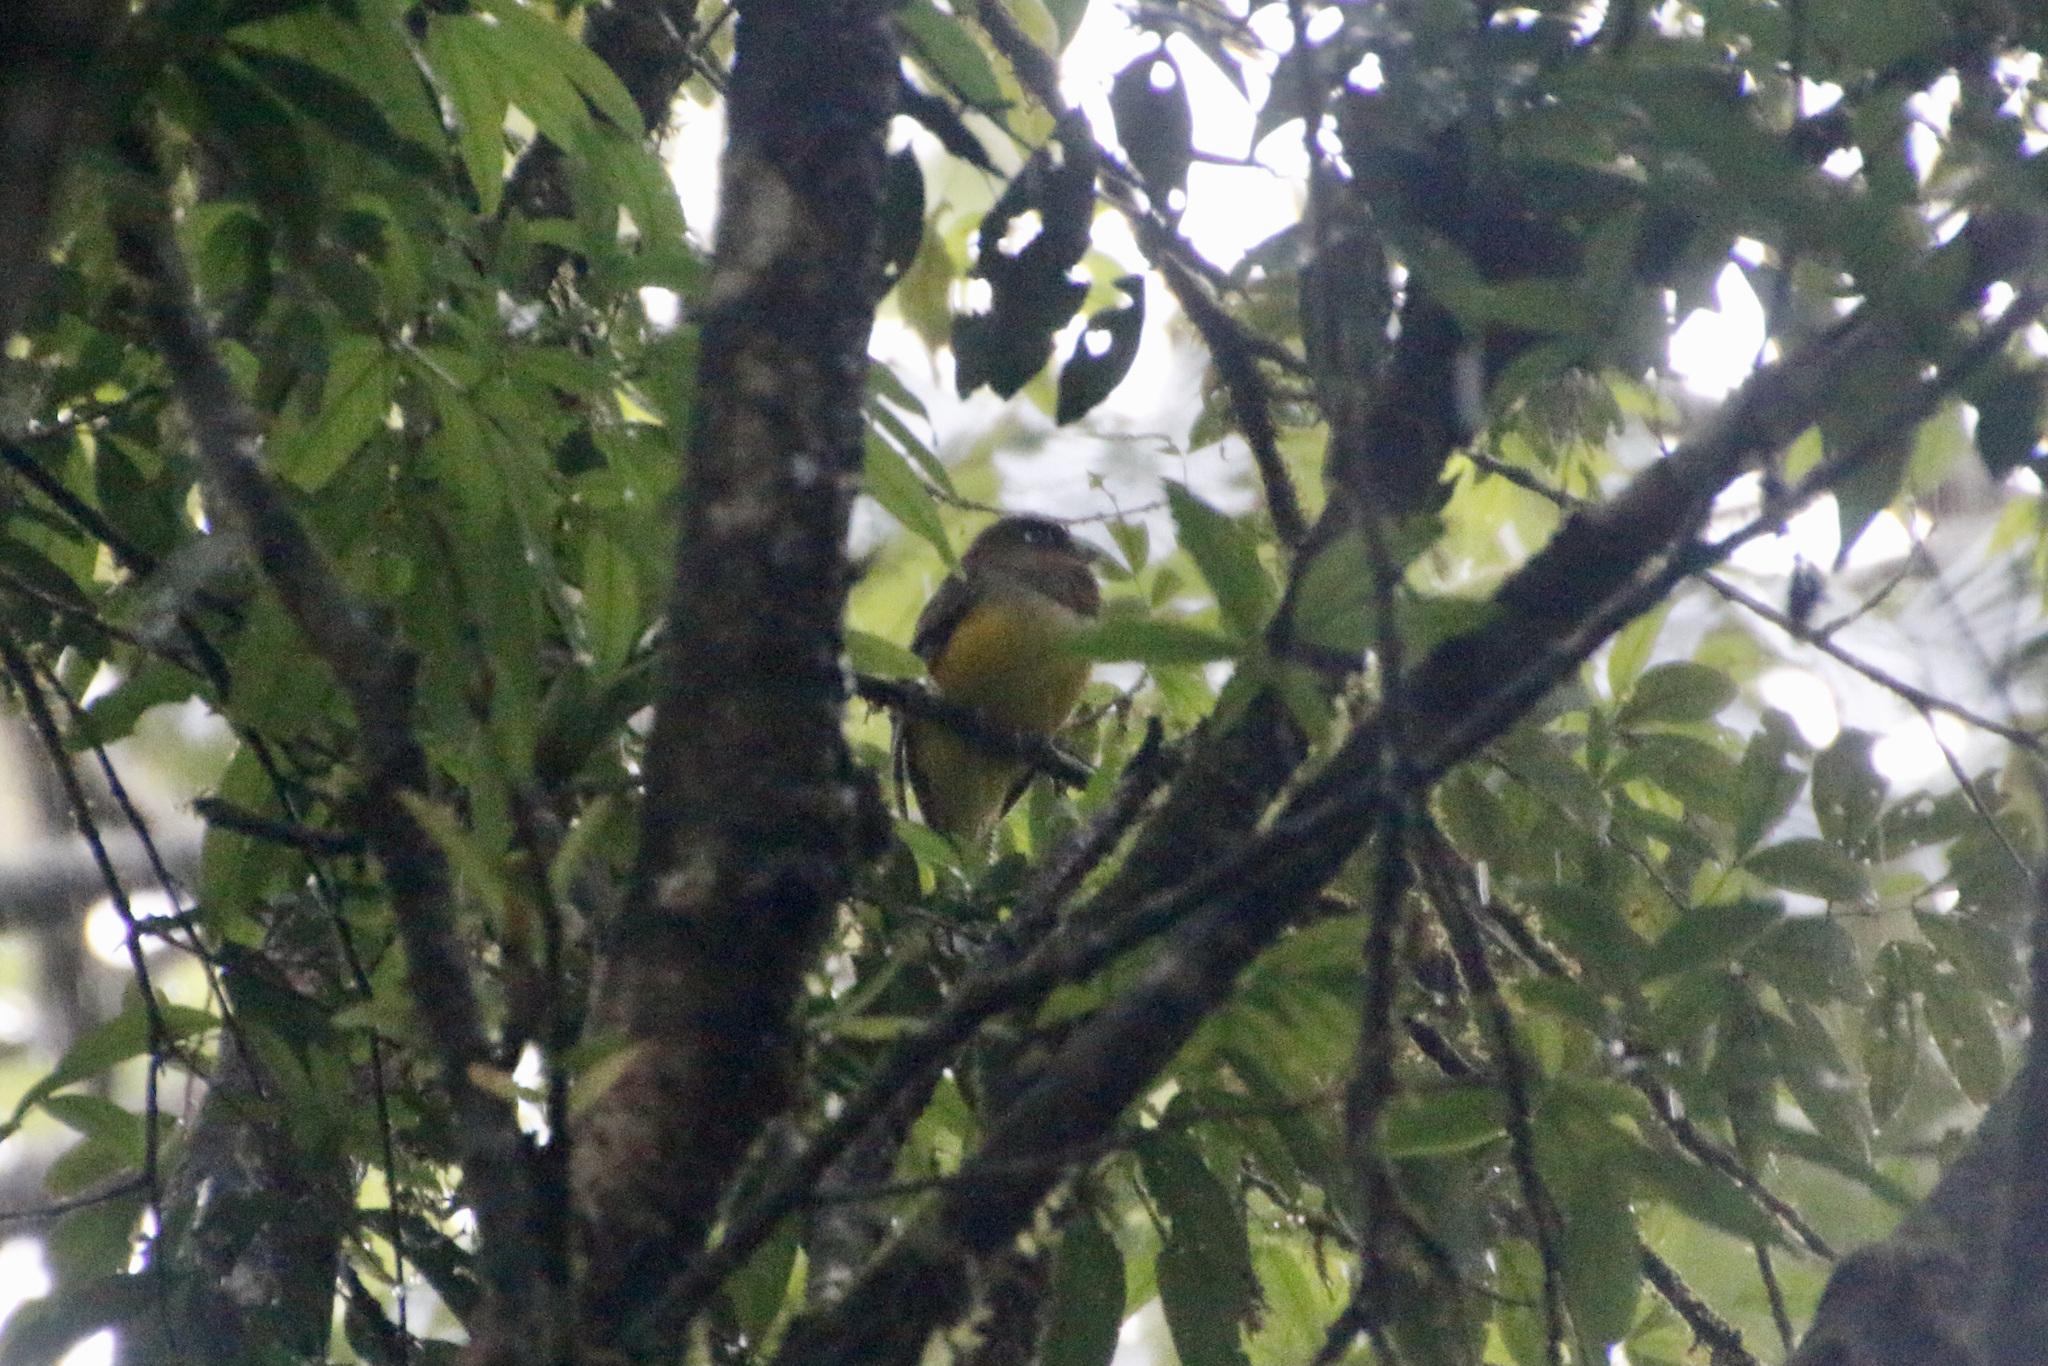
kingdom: Animalia
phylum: Chordata
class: Aves
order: Trogoniformes
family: Trogonidae
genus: Trogon
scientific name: Trogon rufus
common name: Black-throated trogon
